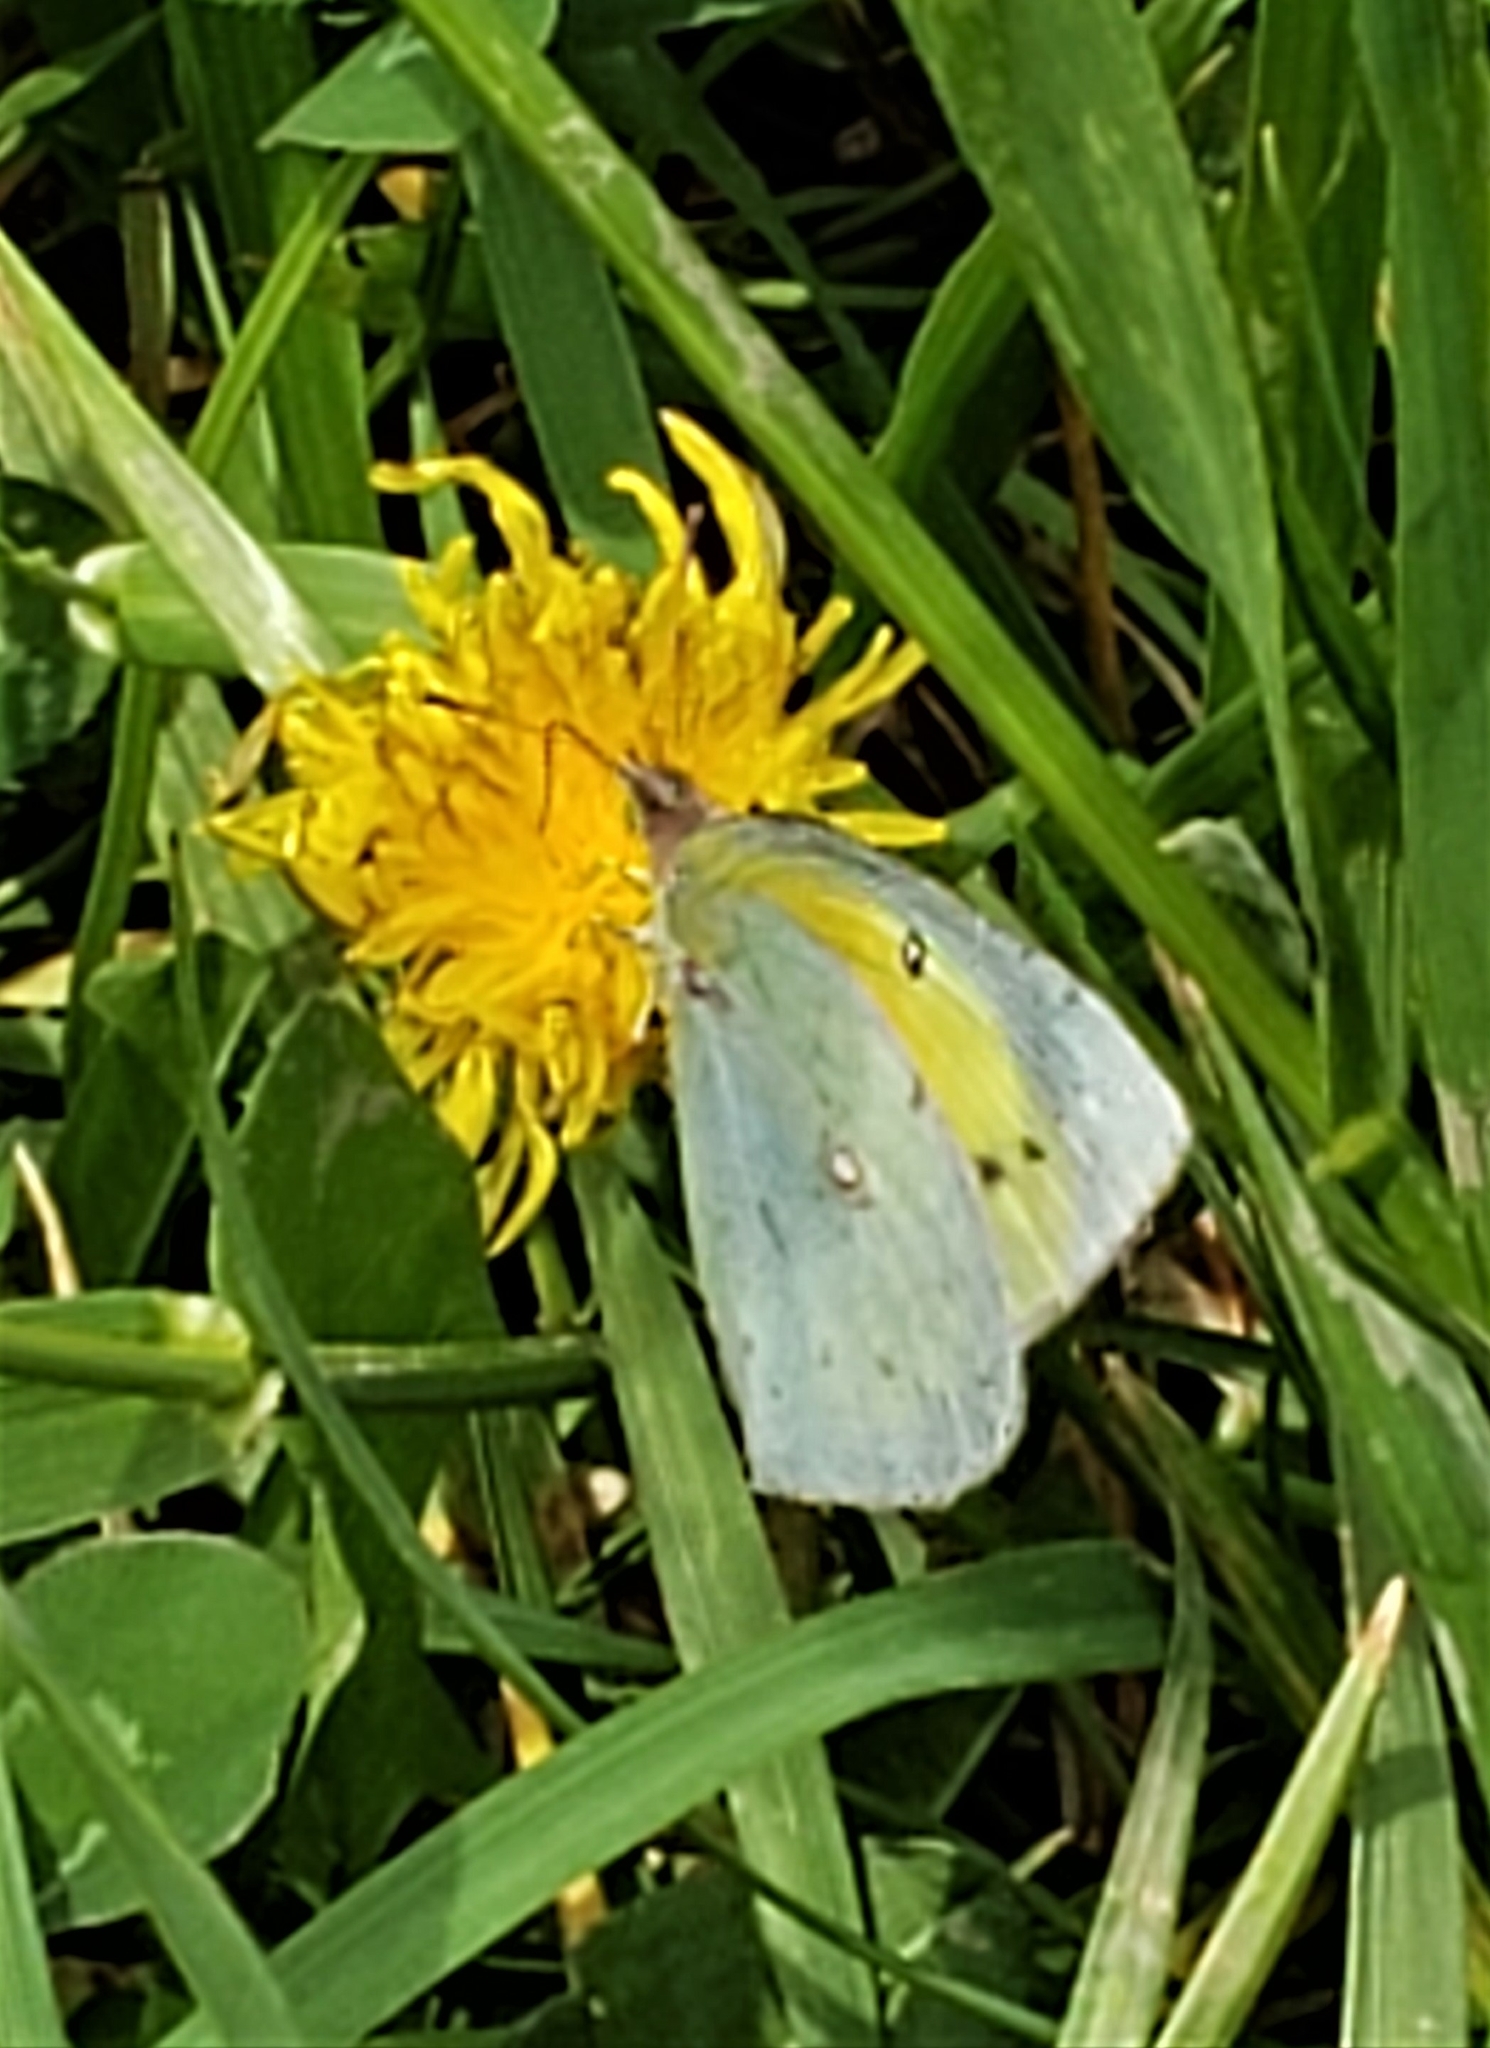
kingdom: Animalia
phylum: Arthropoda
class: Insecta
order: Lepidoptera
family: Pieridae
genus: Colias
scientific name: Colias eurytheme
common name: Alfalfa butterfly
